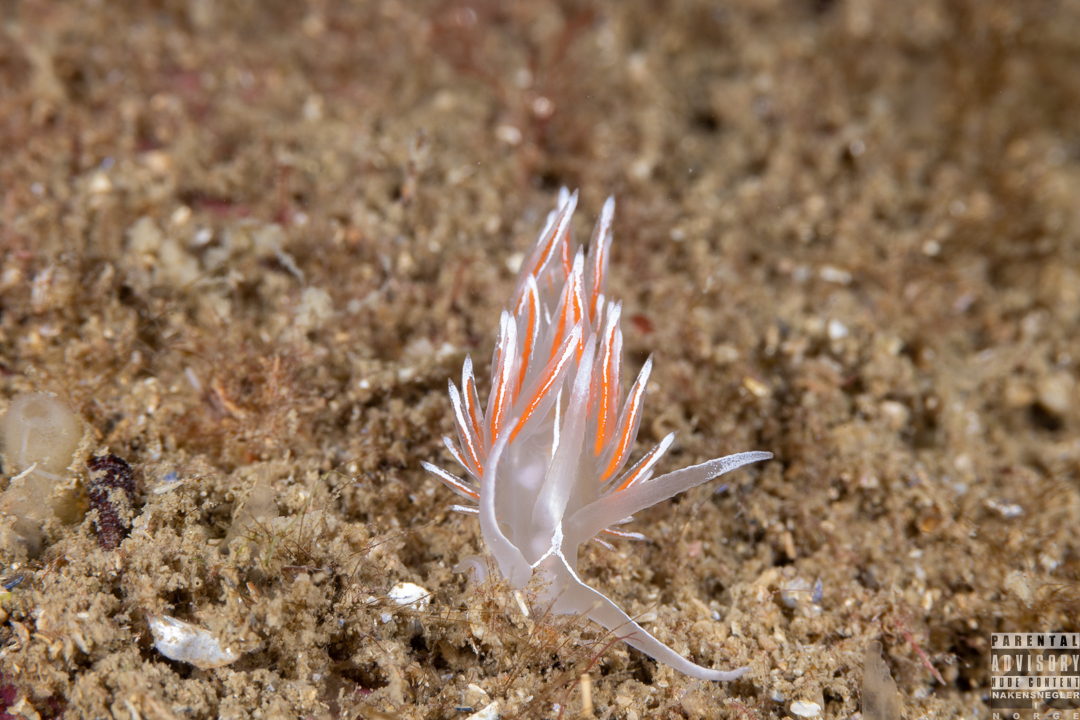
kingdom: Animalia
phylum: Mollusca
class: Gastropoda
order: Nudibranchia
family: Coryphellidae
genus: Coryphella
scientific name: Coryphella lineata
